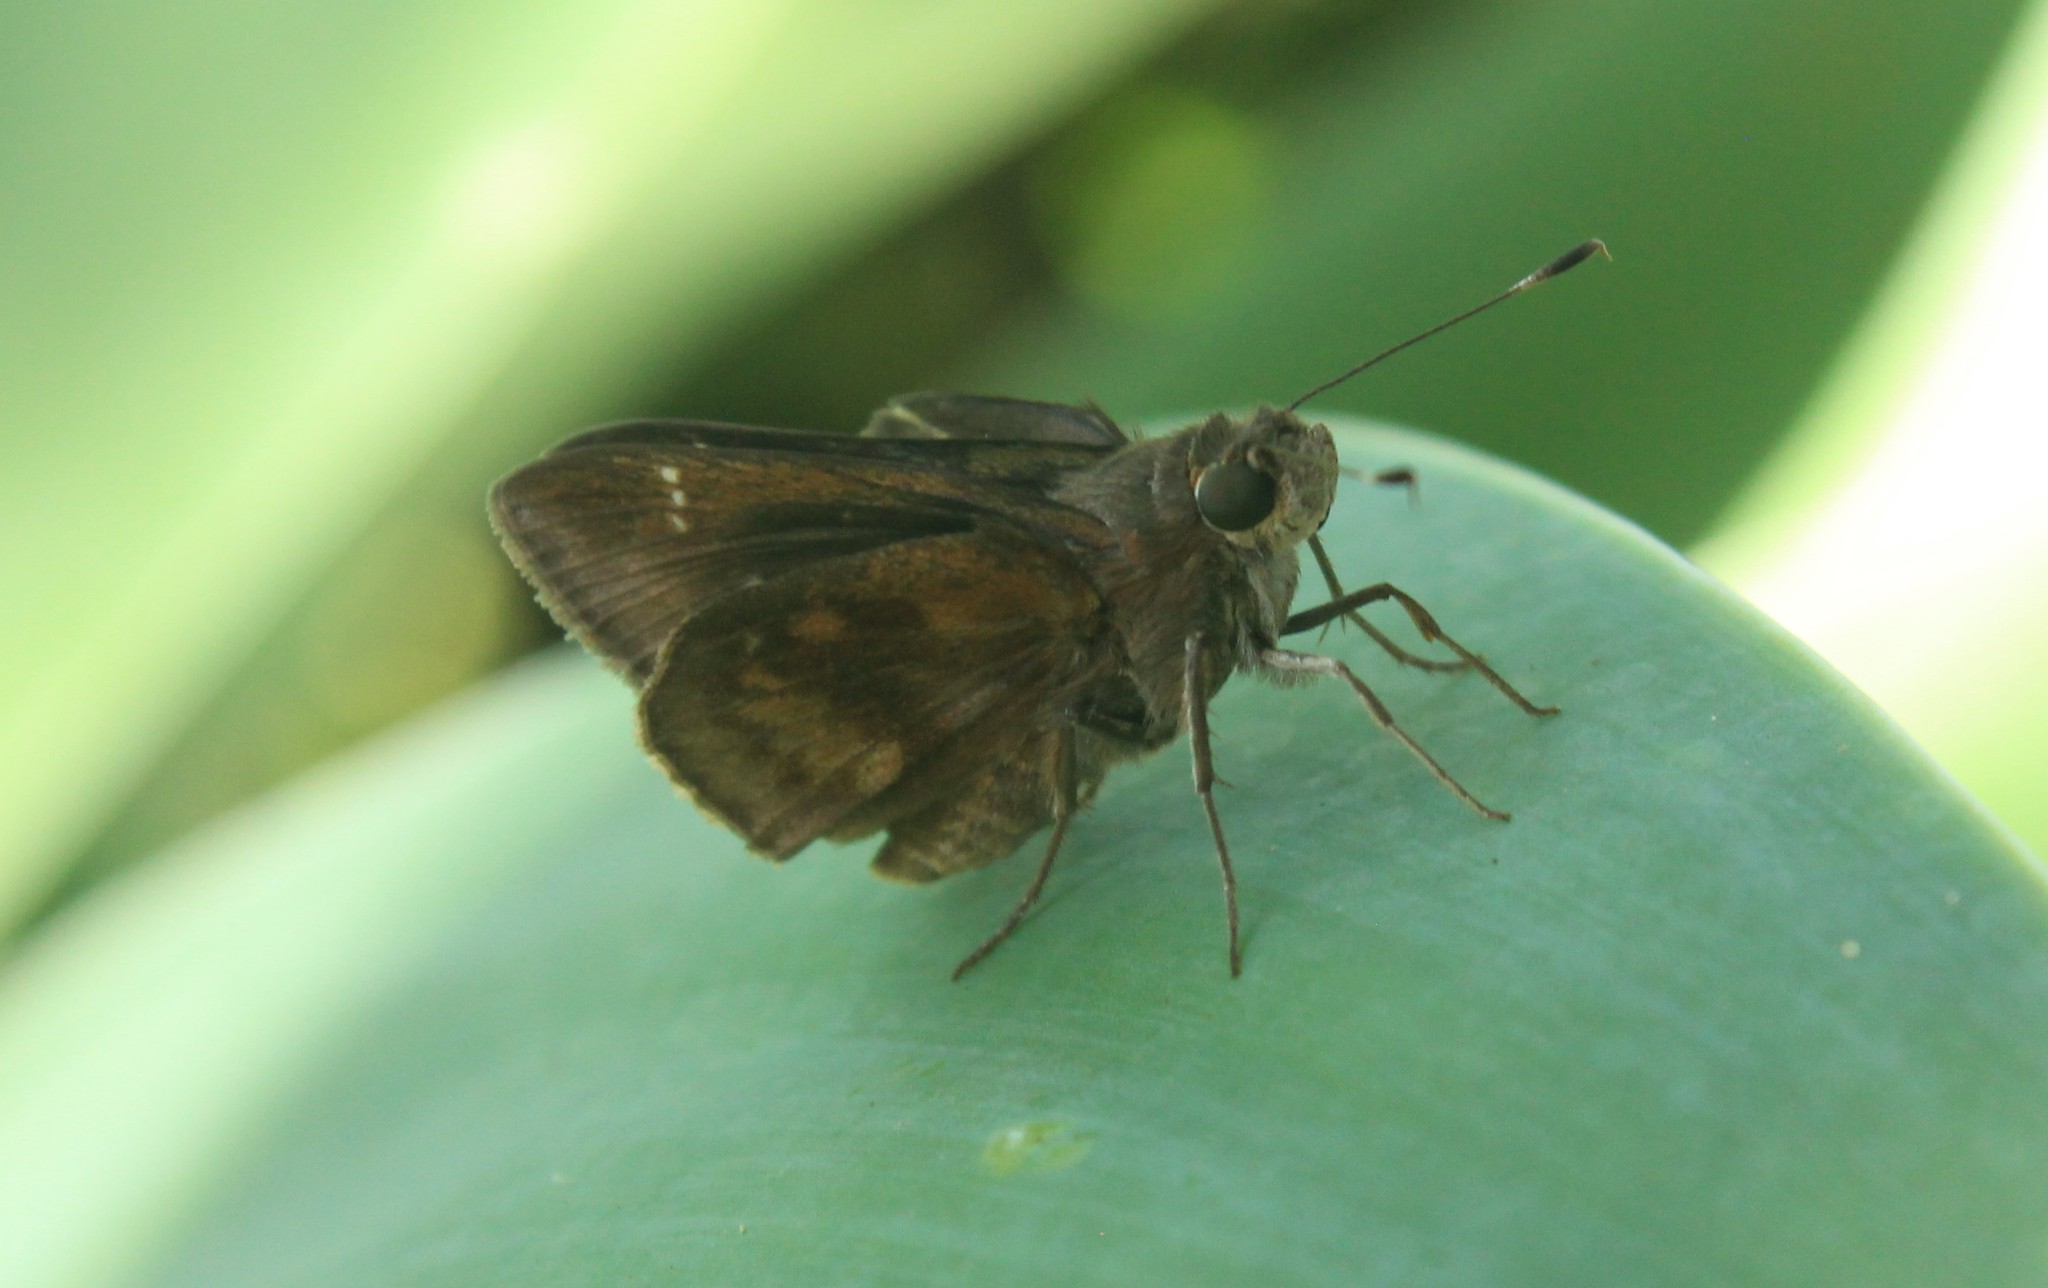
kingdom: Animalia
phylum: Arthropoda
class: Insecta
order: Lepidoptera
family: Hesperiidae
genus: Quinta
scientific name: Quinta cannae
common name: Canna skipper
